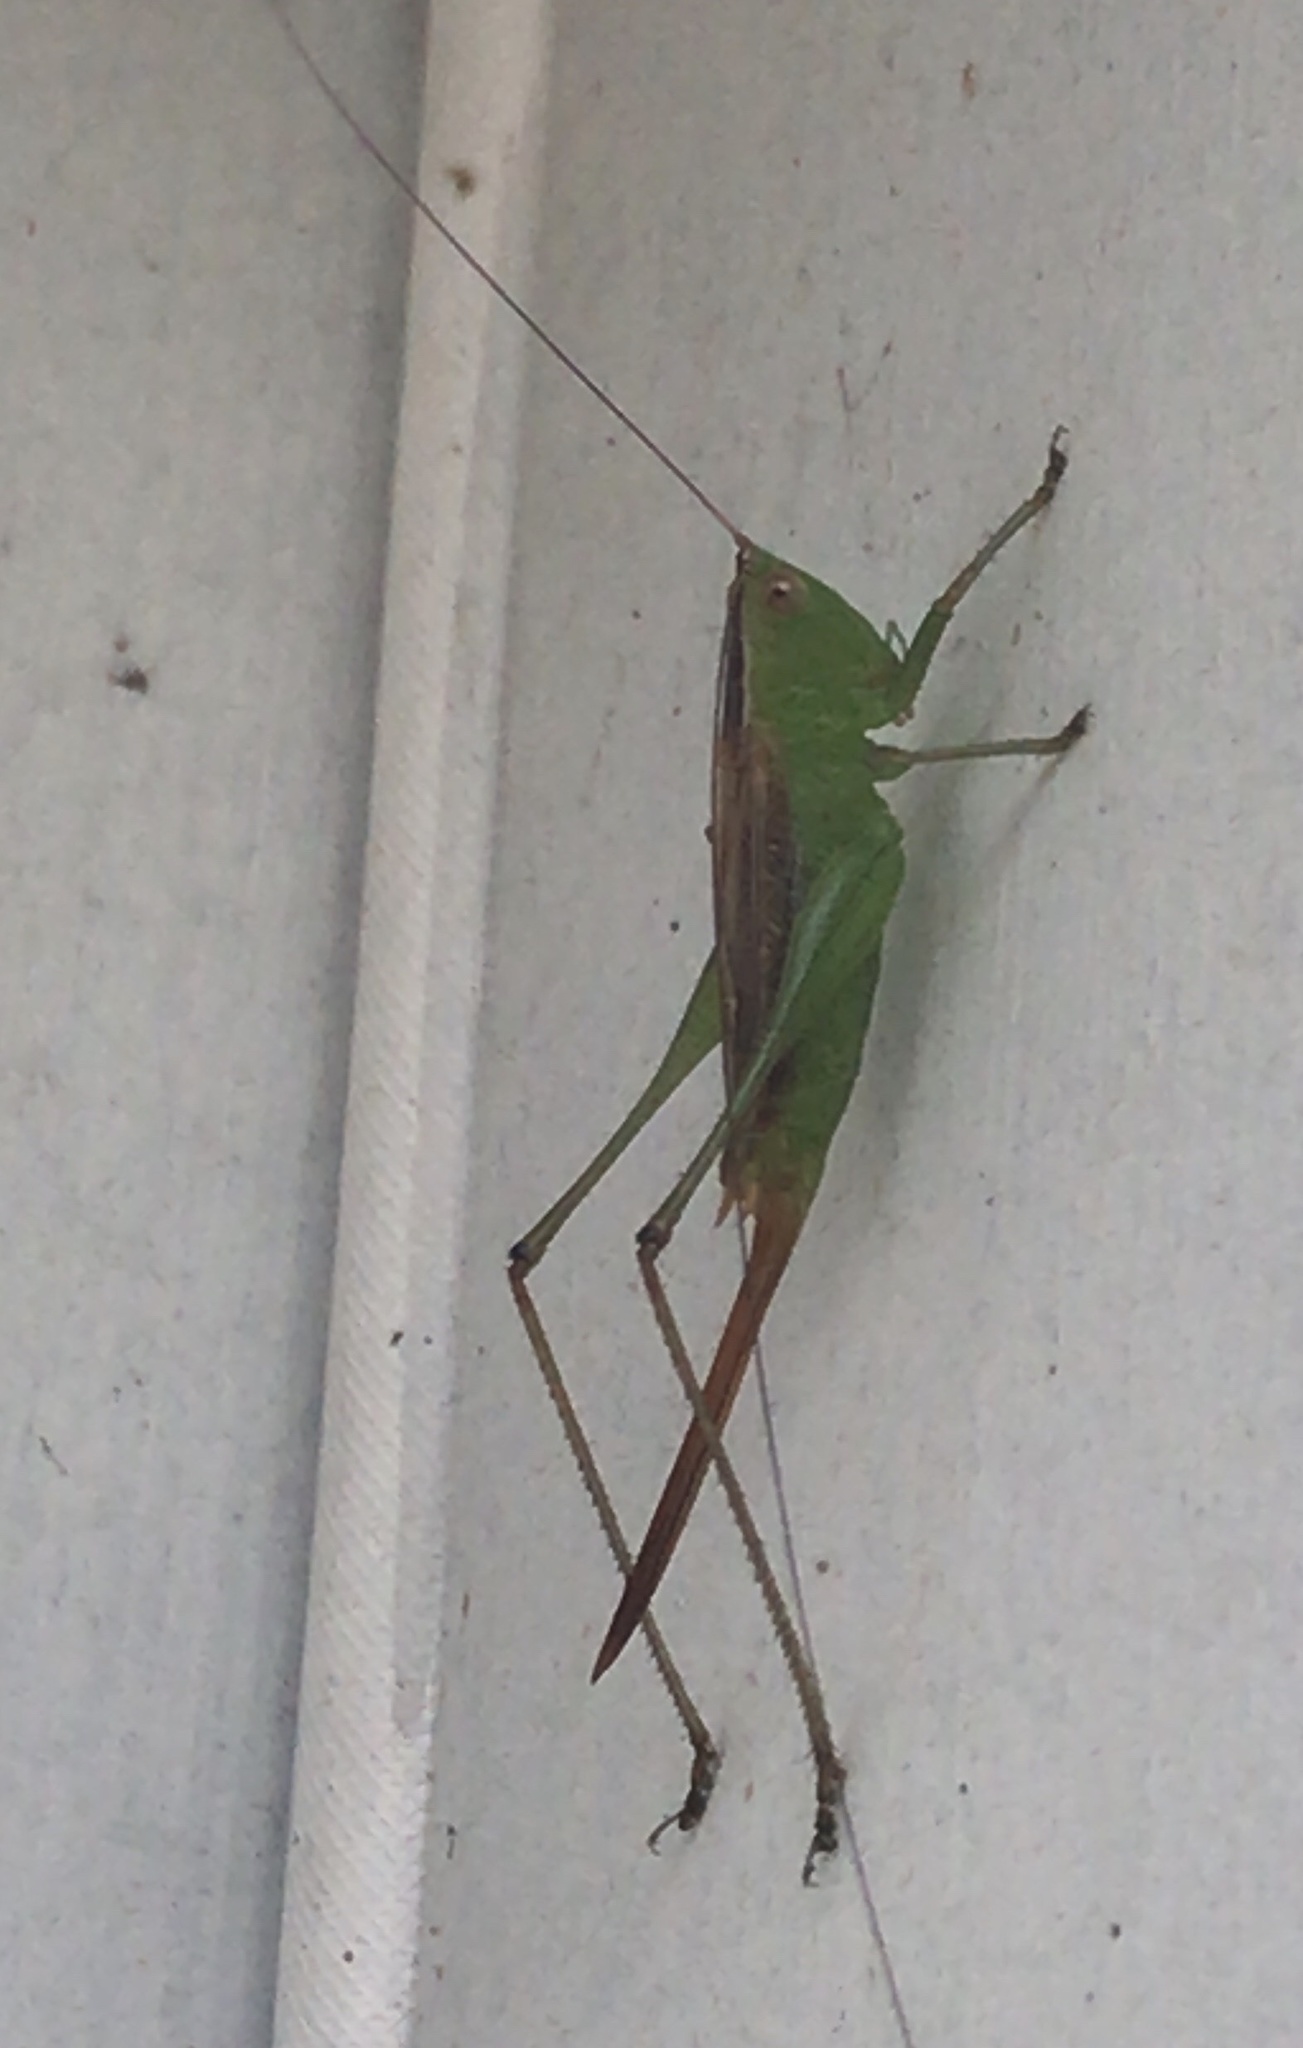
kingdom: Animalia
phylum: Arthropoda
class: Insecta
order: Orthoptera
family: Tettigoniidae
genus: Conocephalus
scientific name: Conocephalus brevipennis
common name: Short-winged meadow katydid
